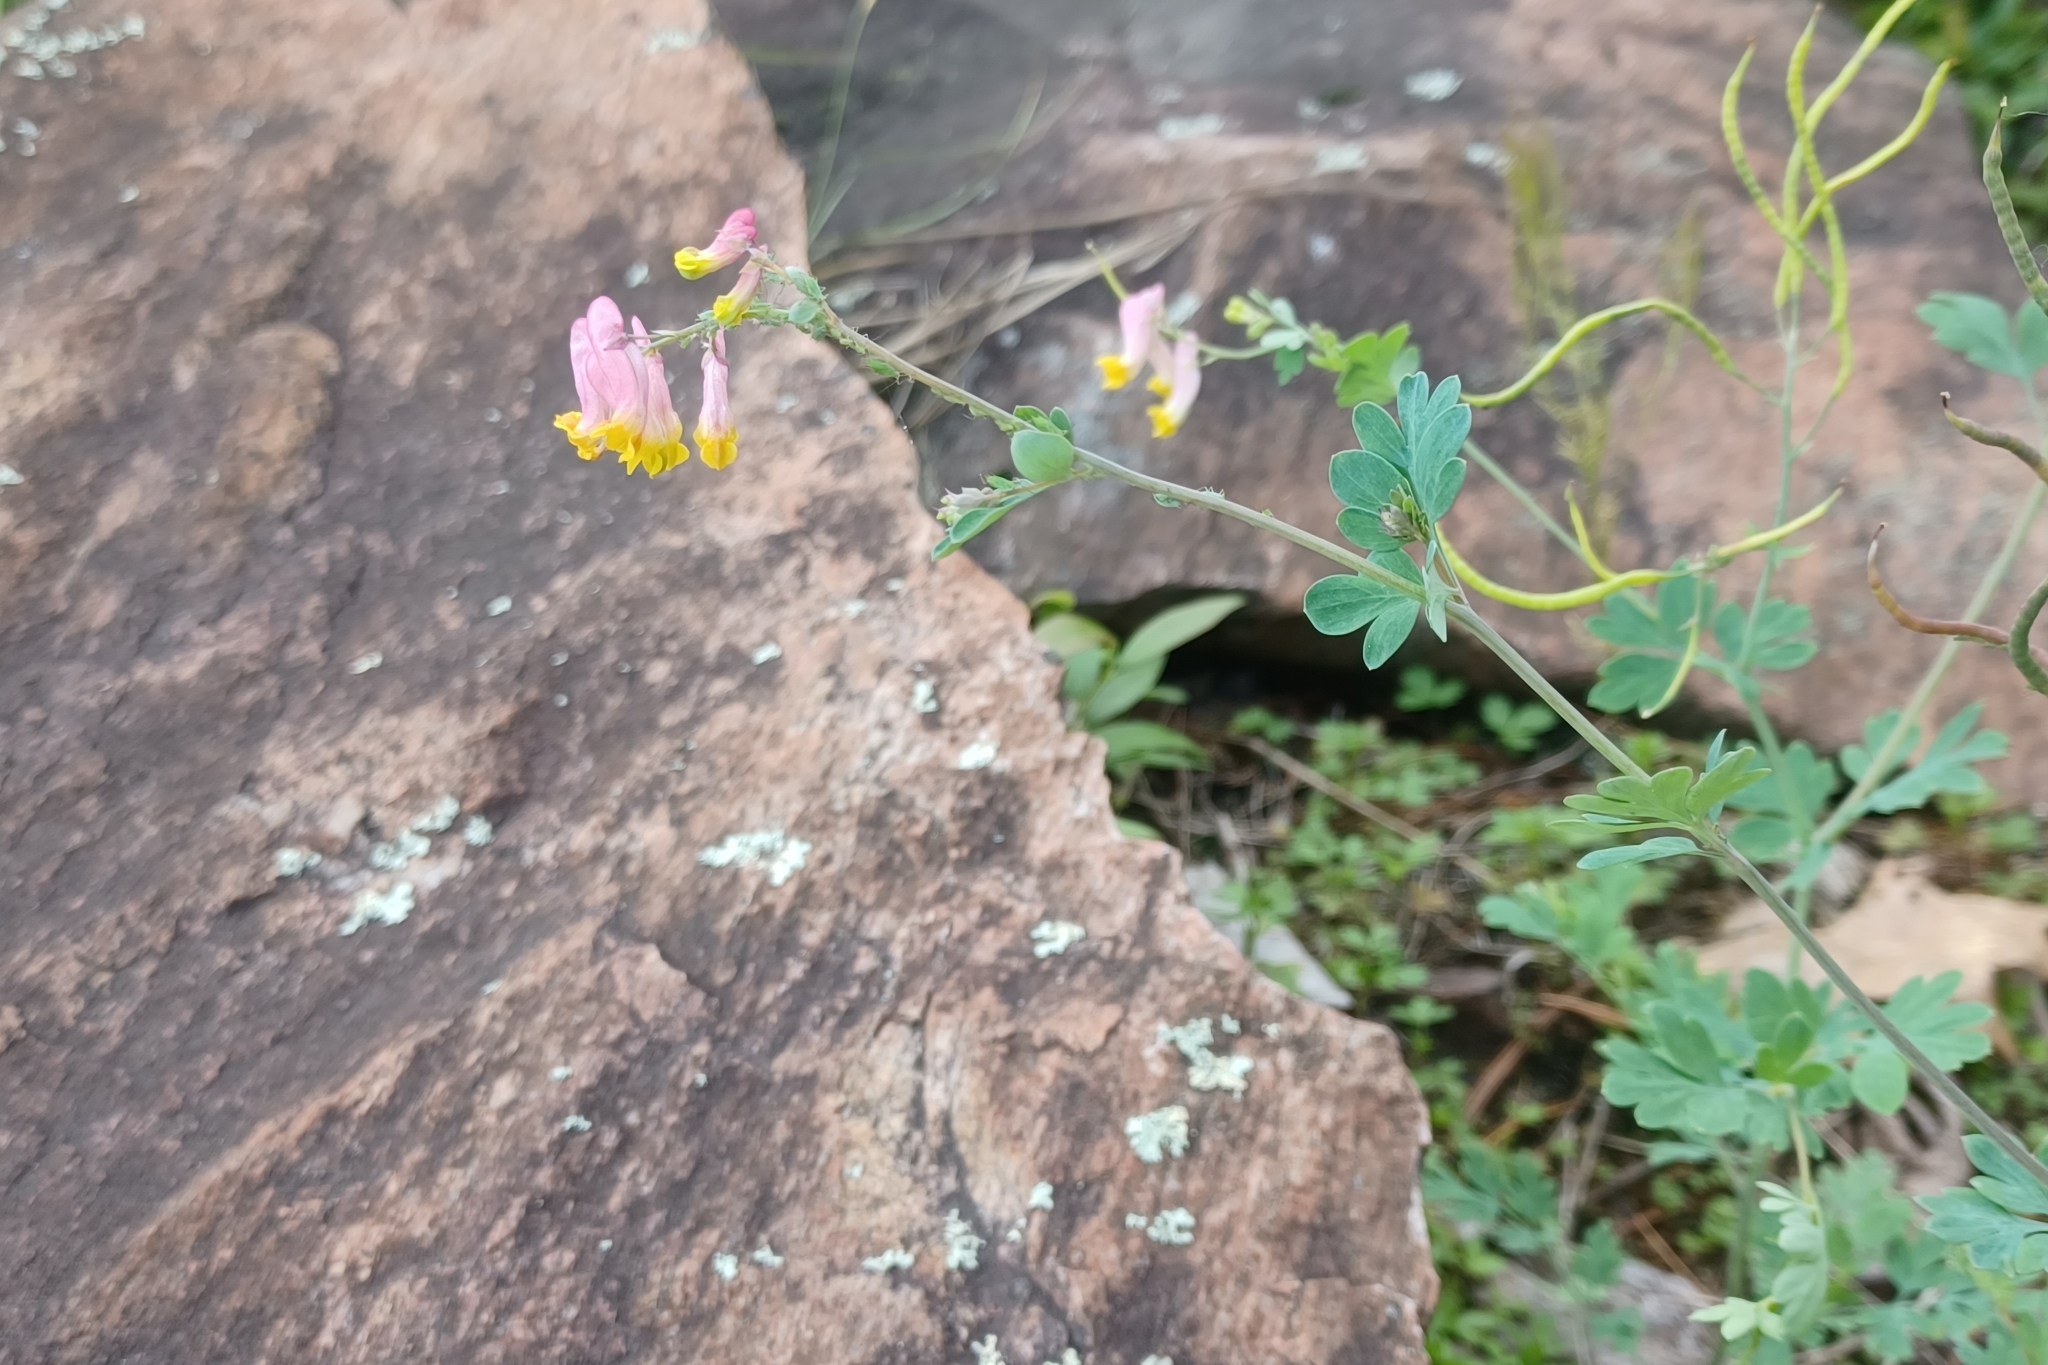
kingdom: Plantae
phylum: Tracheophyta
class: Magnoliopsida
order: Ranunculales
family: Papaveraceae
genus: Capnoides
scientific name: Capnoides sempervirens
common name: Rock harlequin
